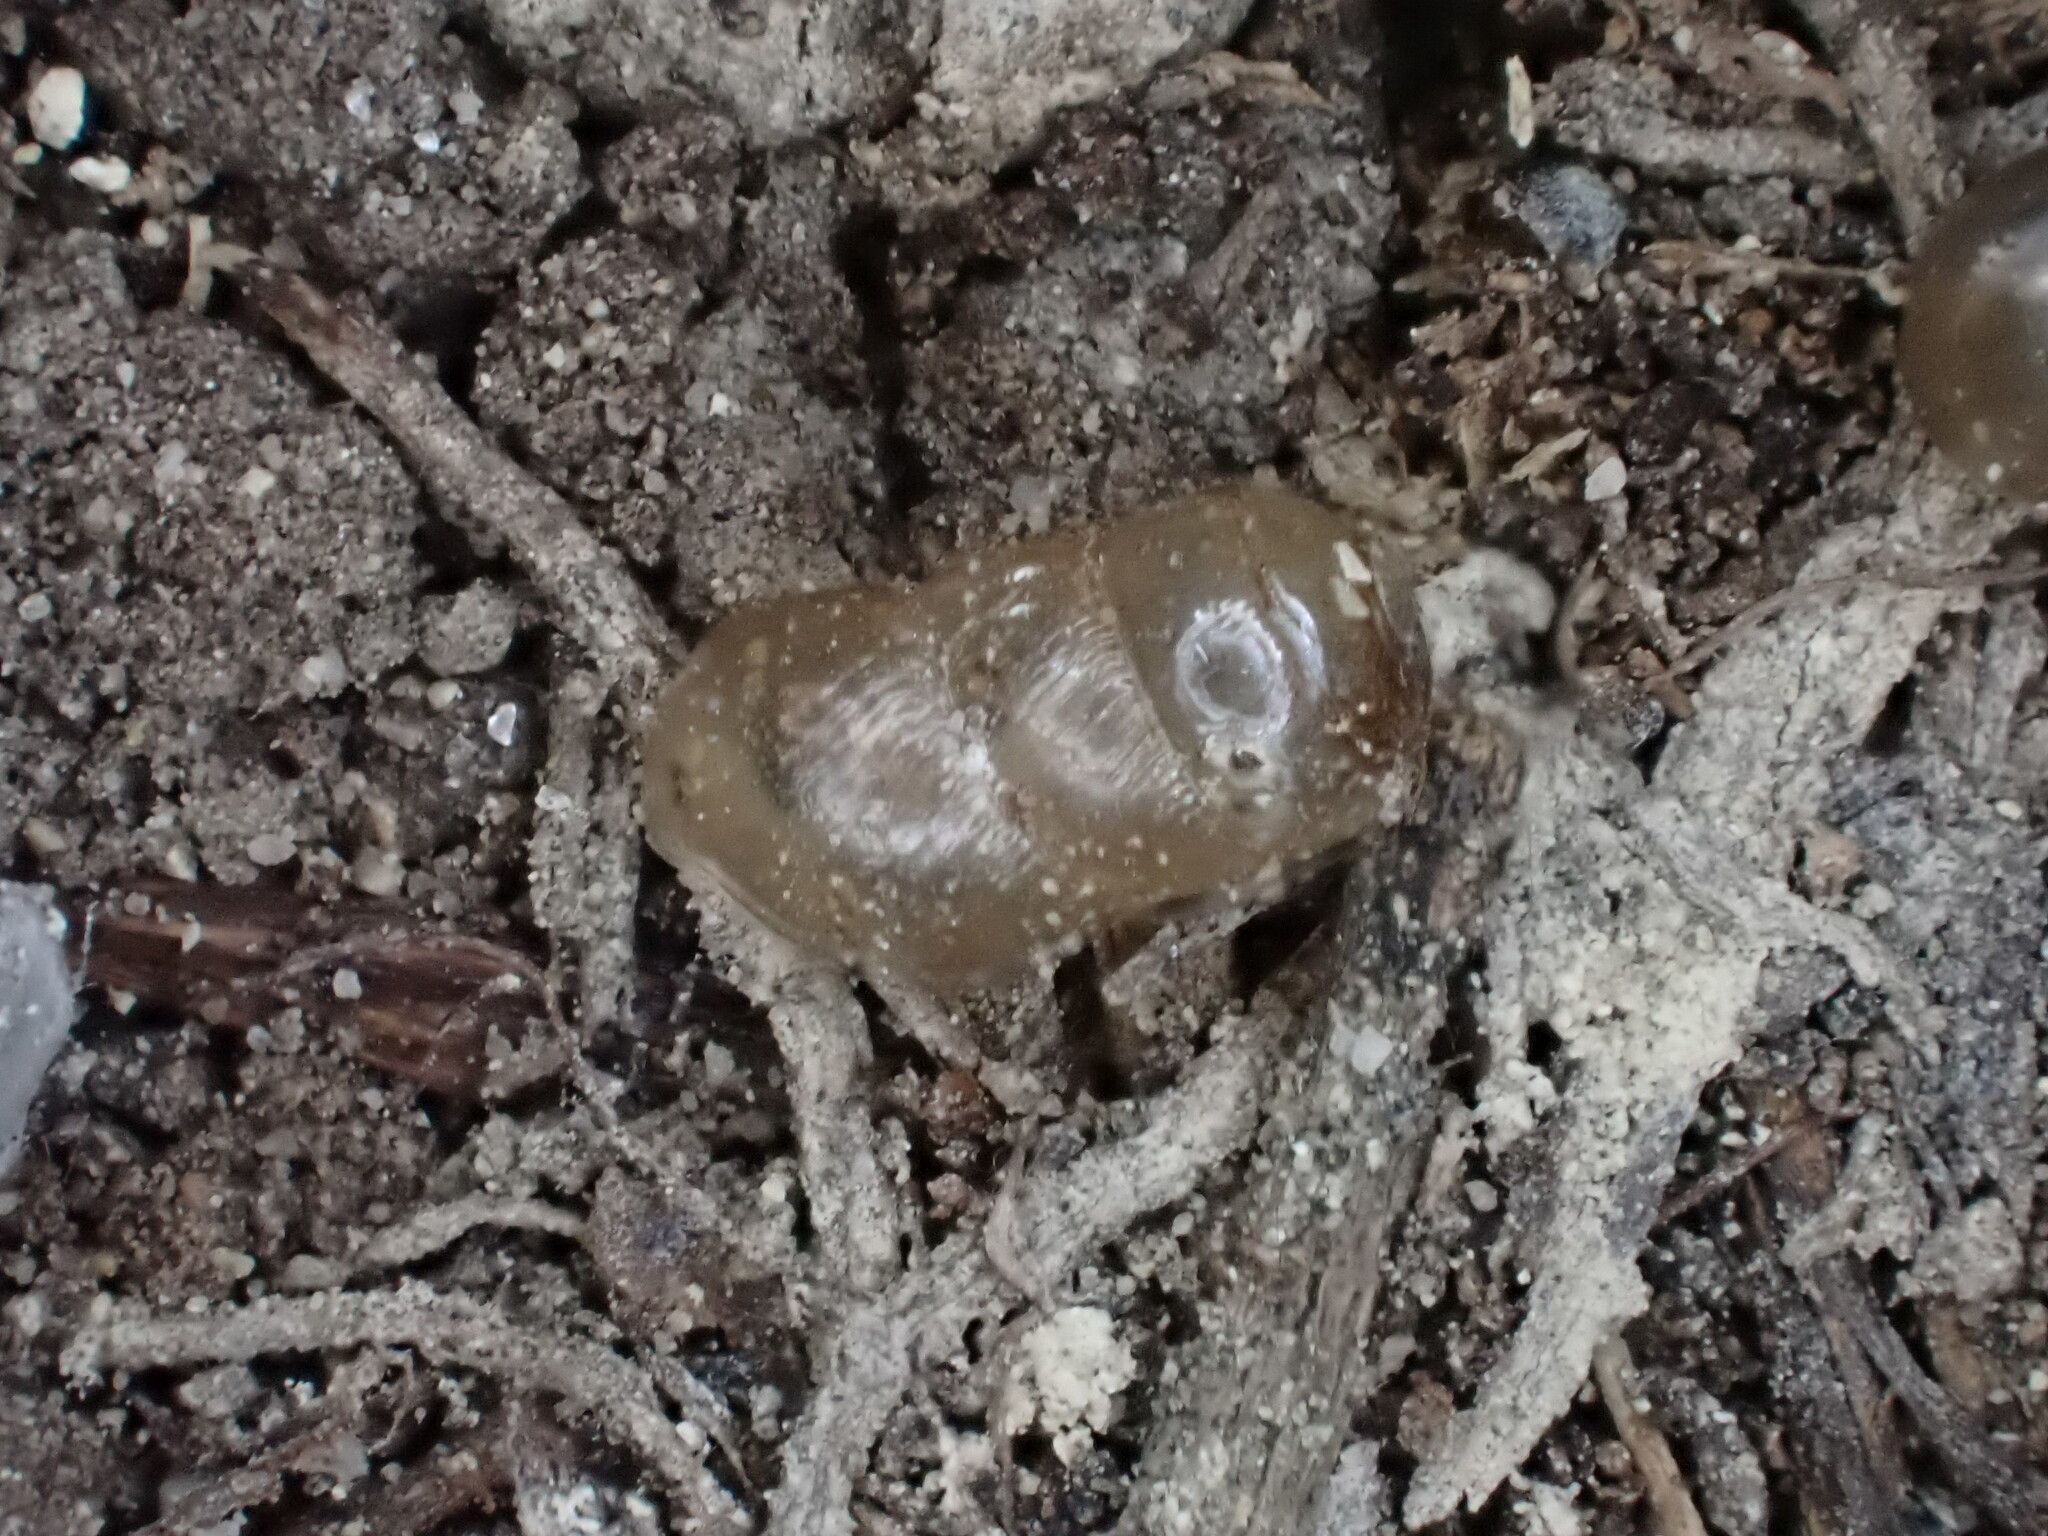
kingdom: Animalia
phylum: Mollusca
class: Gastropoda
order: Stylommatophora
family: Achatinidae
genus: Rumina
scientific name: Rumina decollata
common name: Decollate snail
